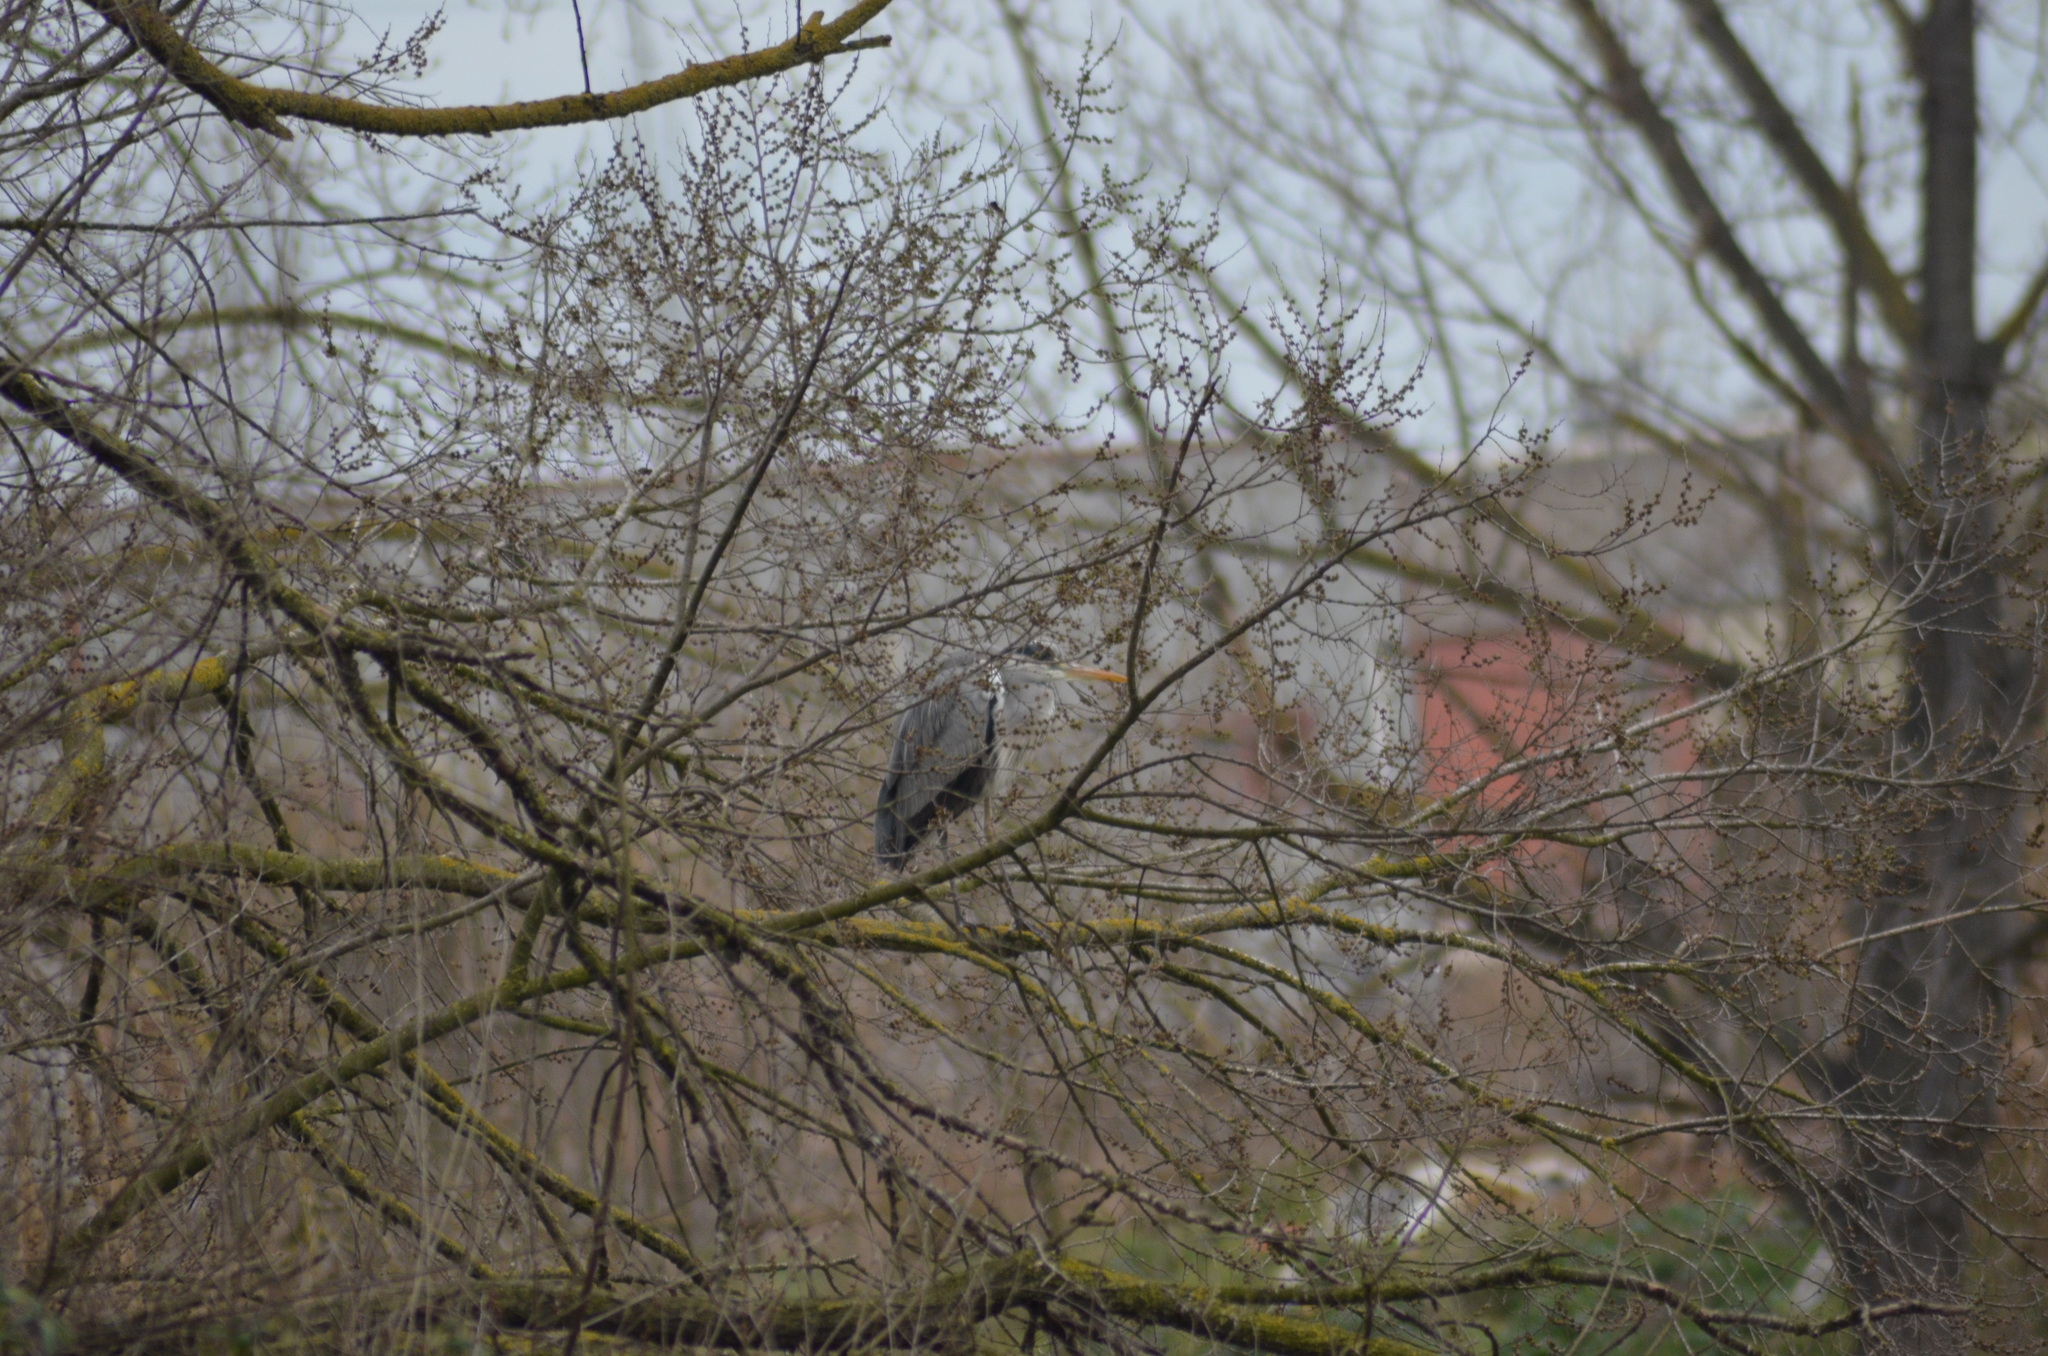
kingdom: Animalia
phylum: Chordata
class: Aves
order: Pelecaniformes
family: Ardeidae
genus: Ardea
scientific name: Ardea cinerea
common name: Grey heron
